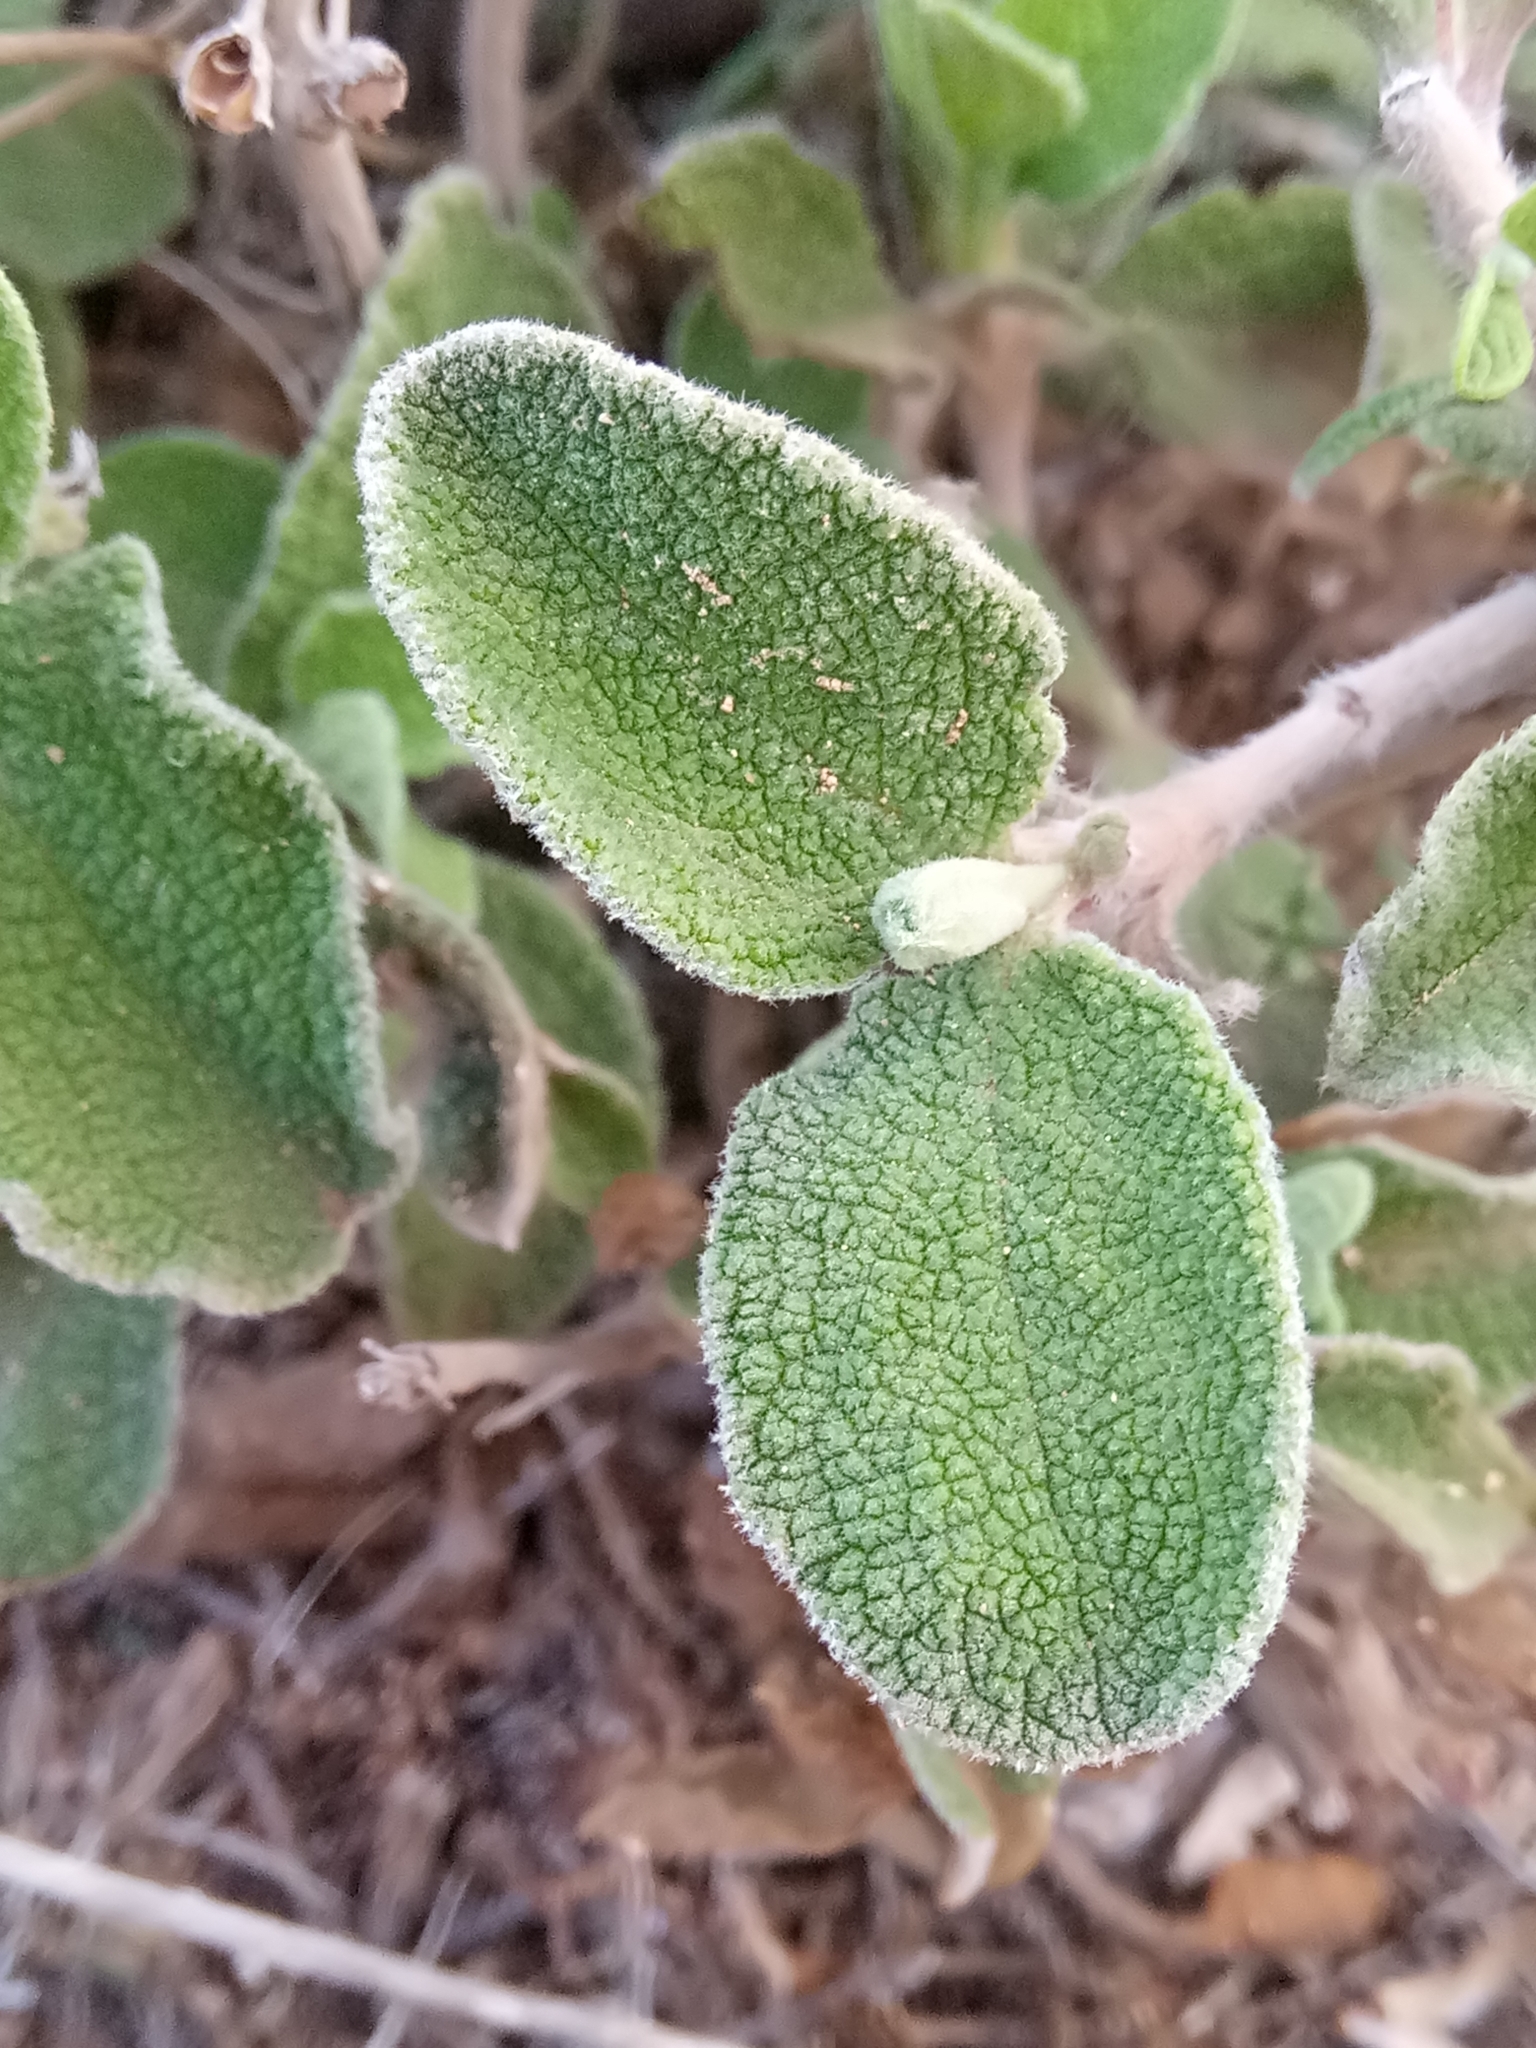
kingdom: Plantae
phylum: Tracheophyta
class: Magnoliopsida
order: Malvales
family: Cistaceae
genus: Cistus
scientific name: Cistus tauricus
